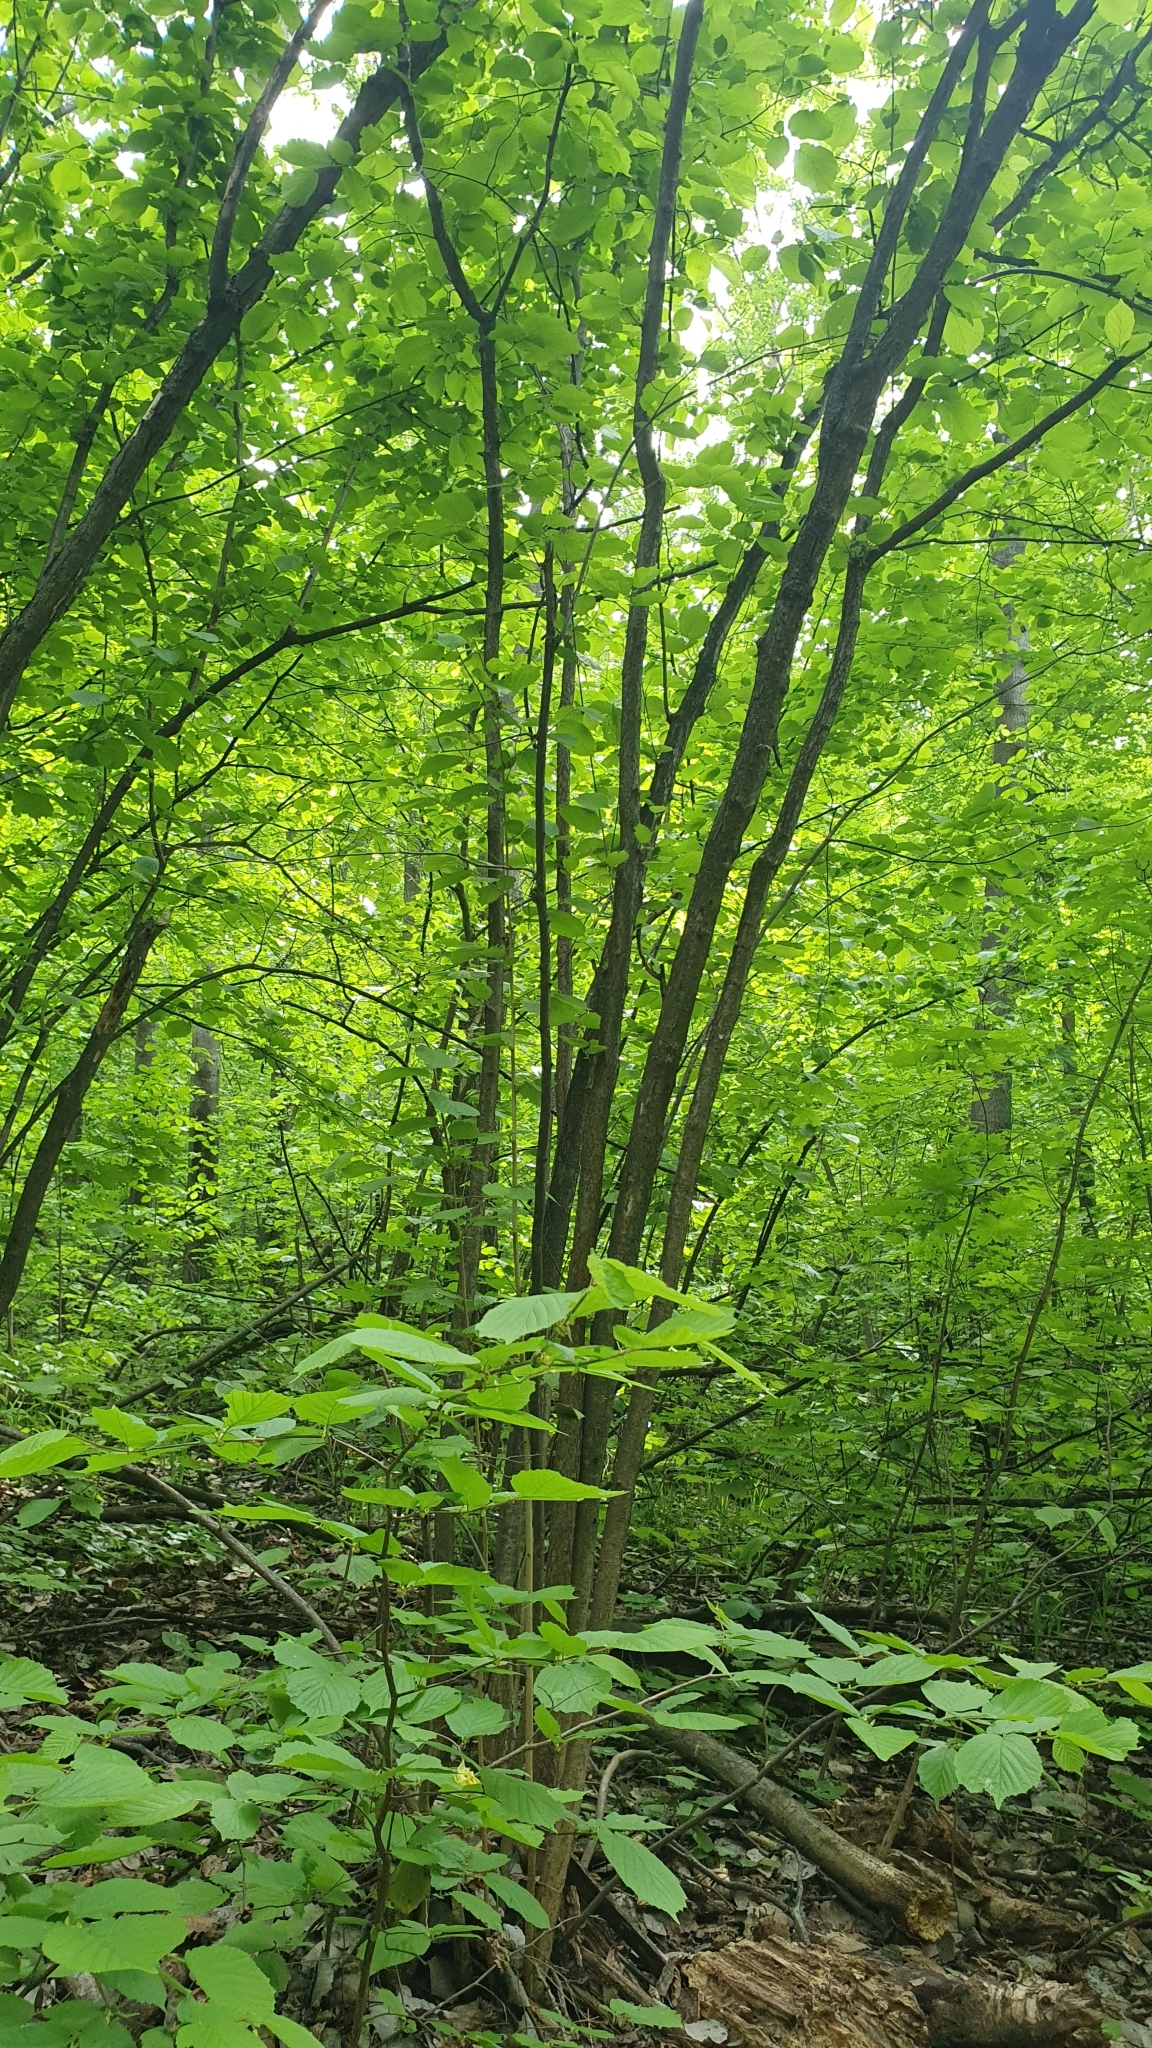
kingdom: Plantae
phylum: Tracheophyta
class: Magnoliopsida
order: Fagales
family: Betulaceae
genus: Corylus
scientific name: Corylus avellana
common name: European hazel
